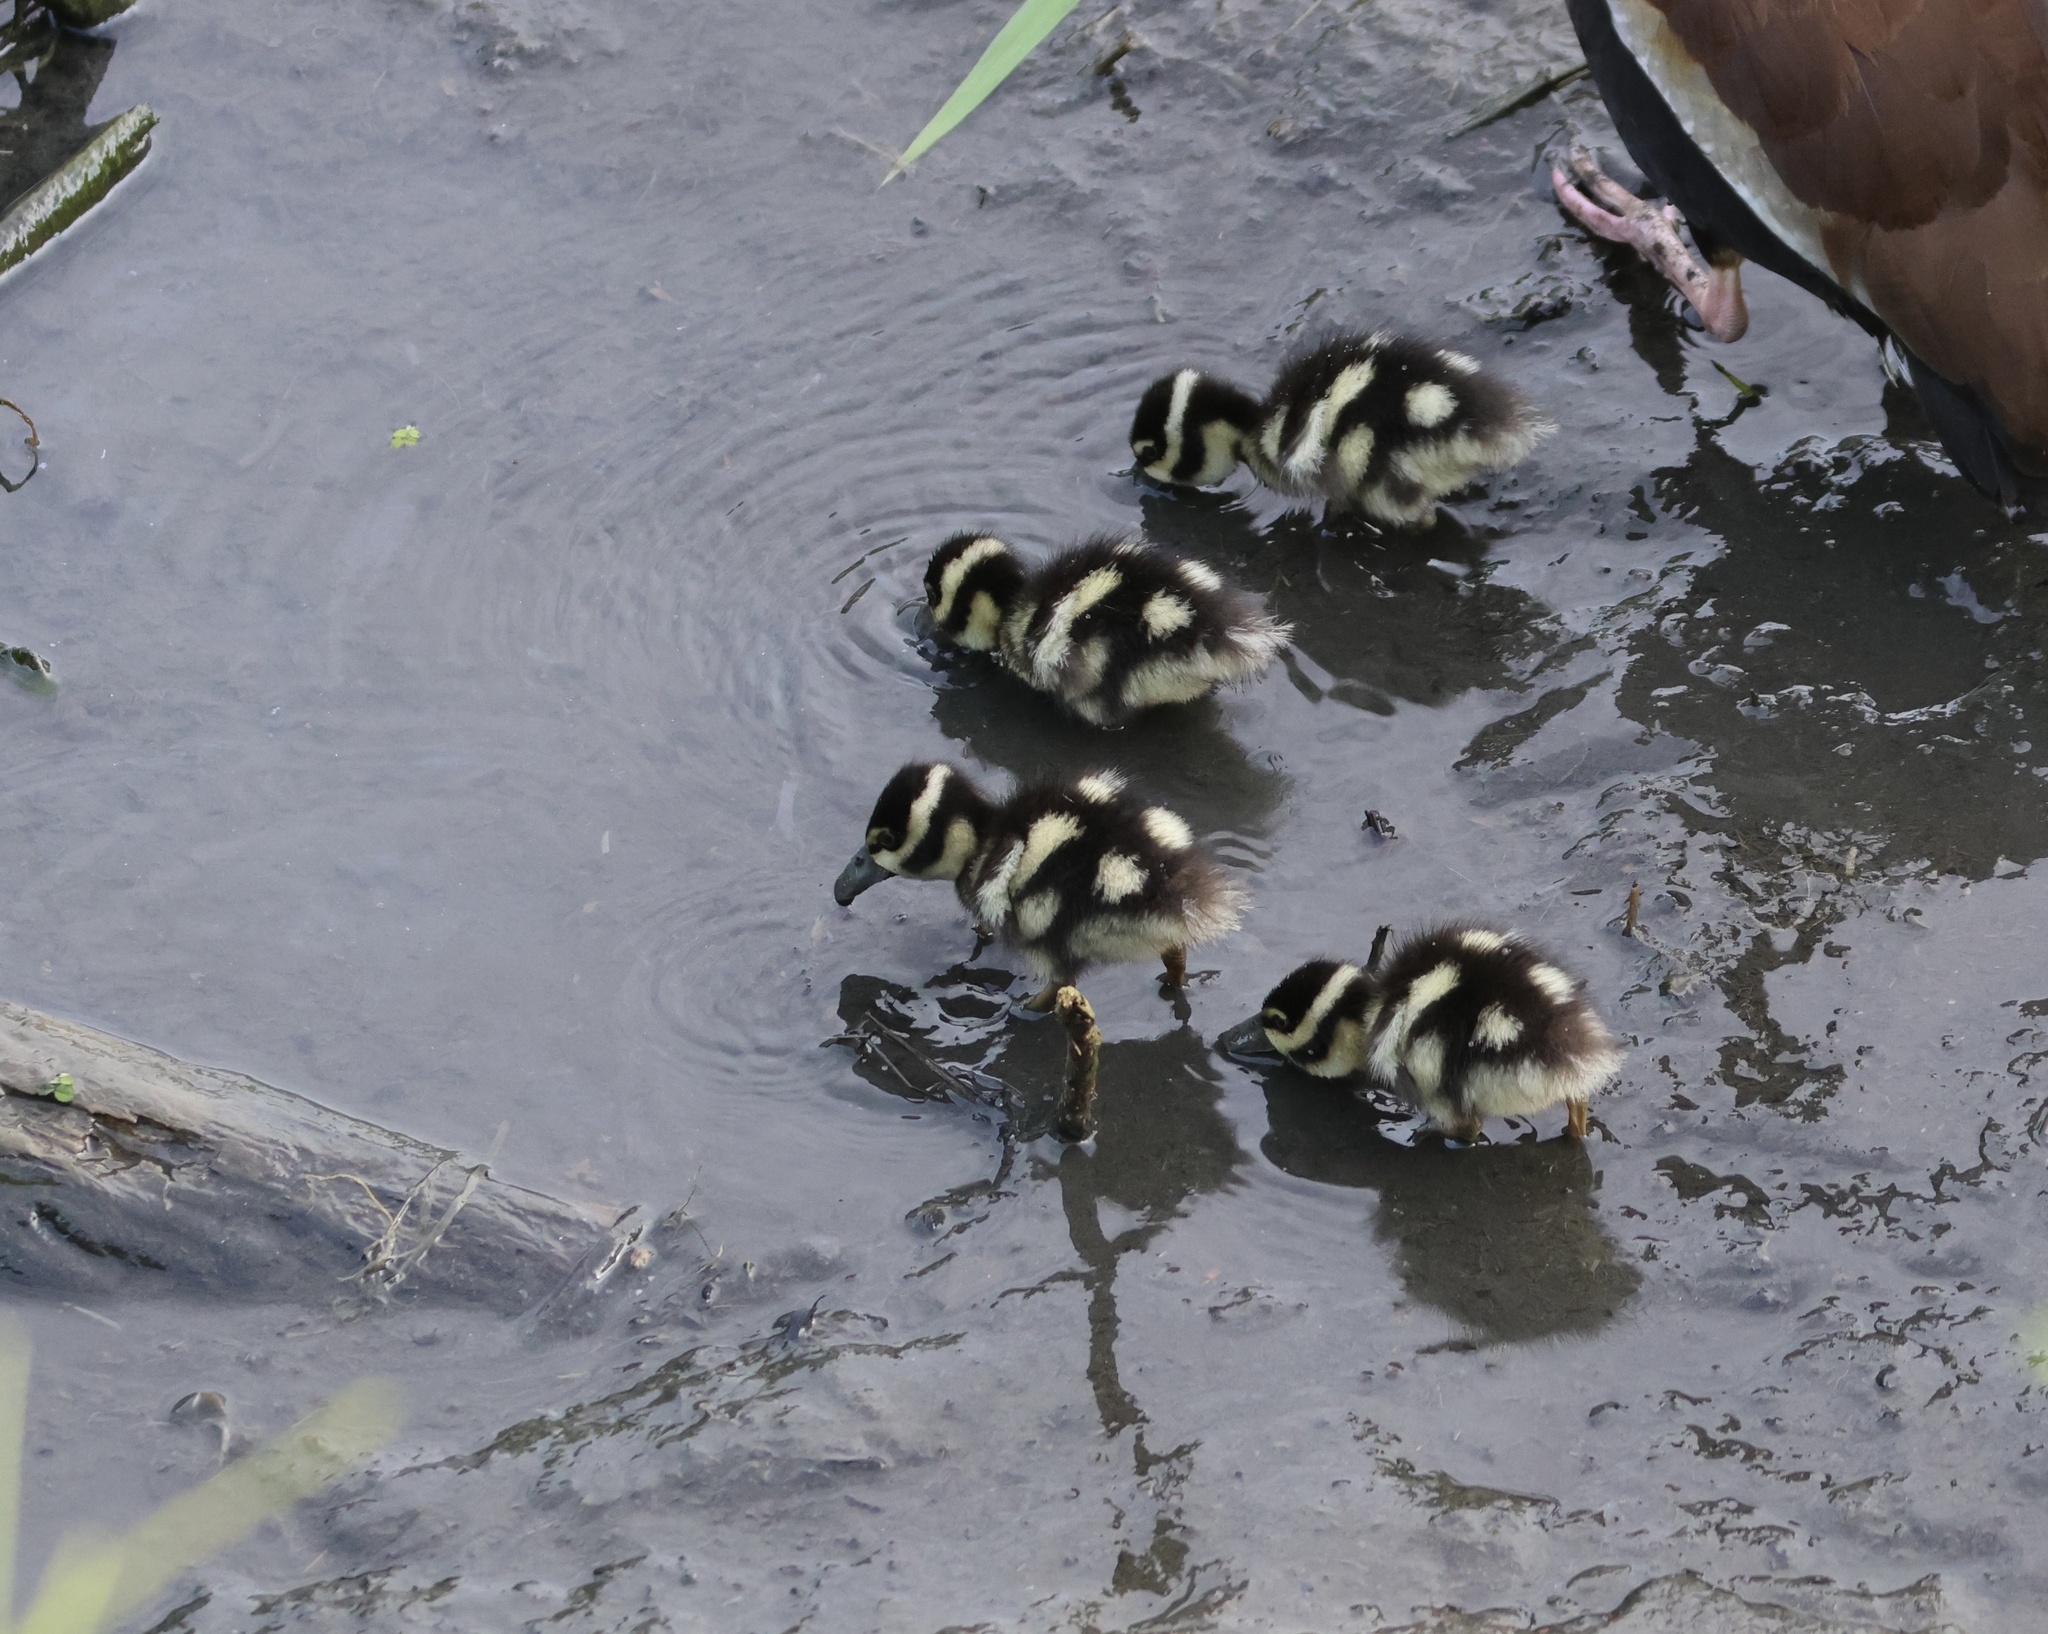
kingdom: Animalia
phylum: Chordata
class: Aves
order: Anseriformes
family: Anatidae
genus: Dendrocygna
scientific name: Dendrocygna autumnalis
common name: Black-bellied whistling duck
